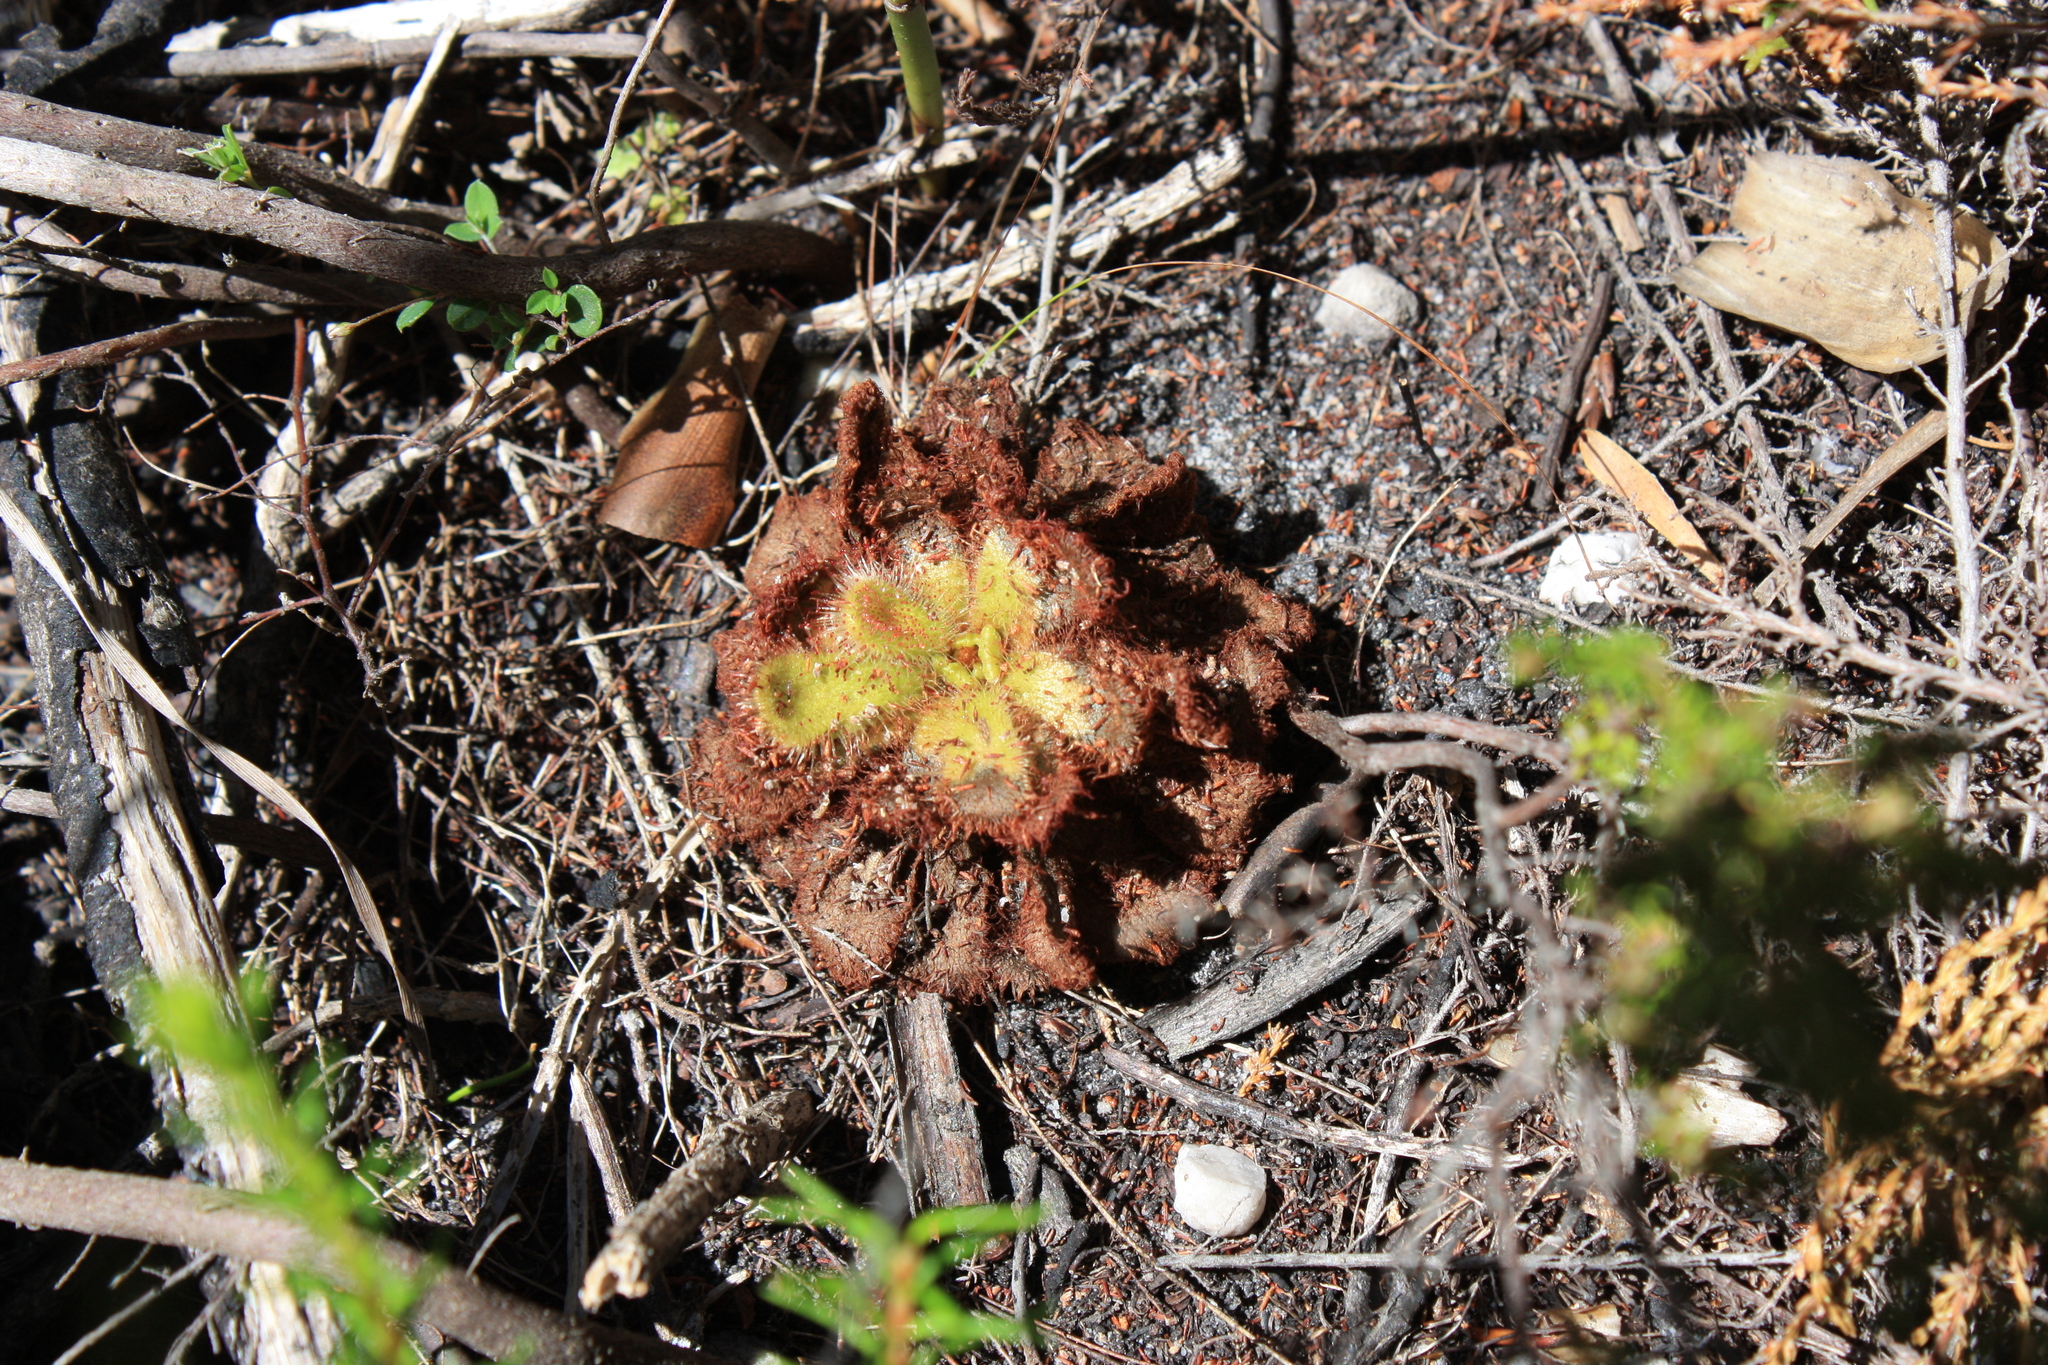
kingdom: Plantae
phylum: Tracheophyta
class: Magnoliopsida
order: Caryophyllales
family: Droseraceae
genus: Drosera
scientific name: Drosera cuneifolia
